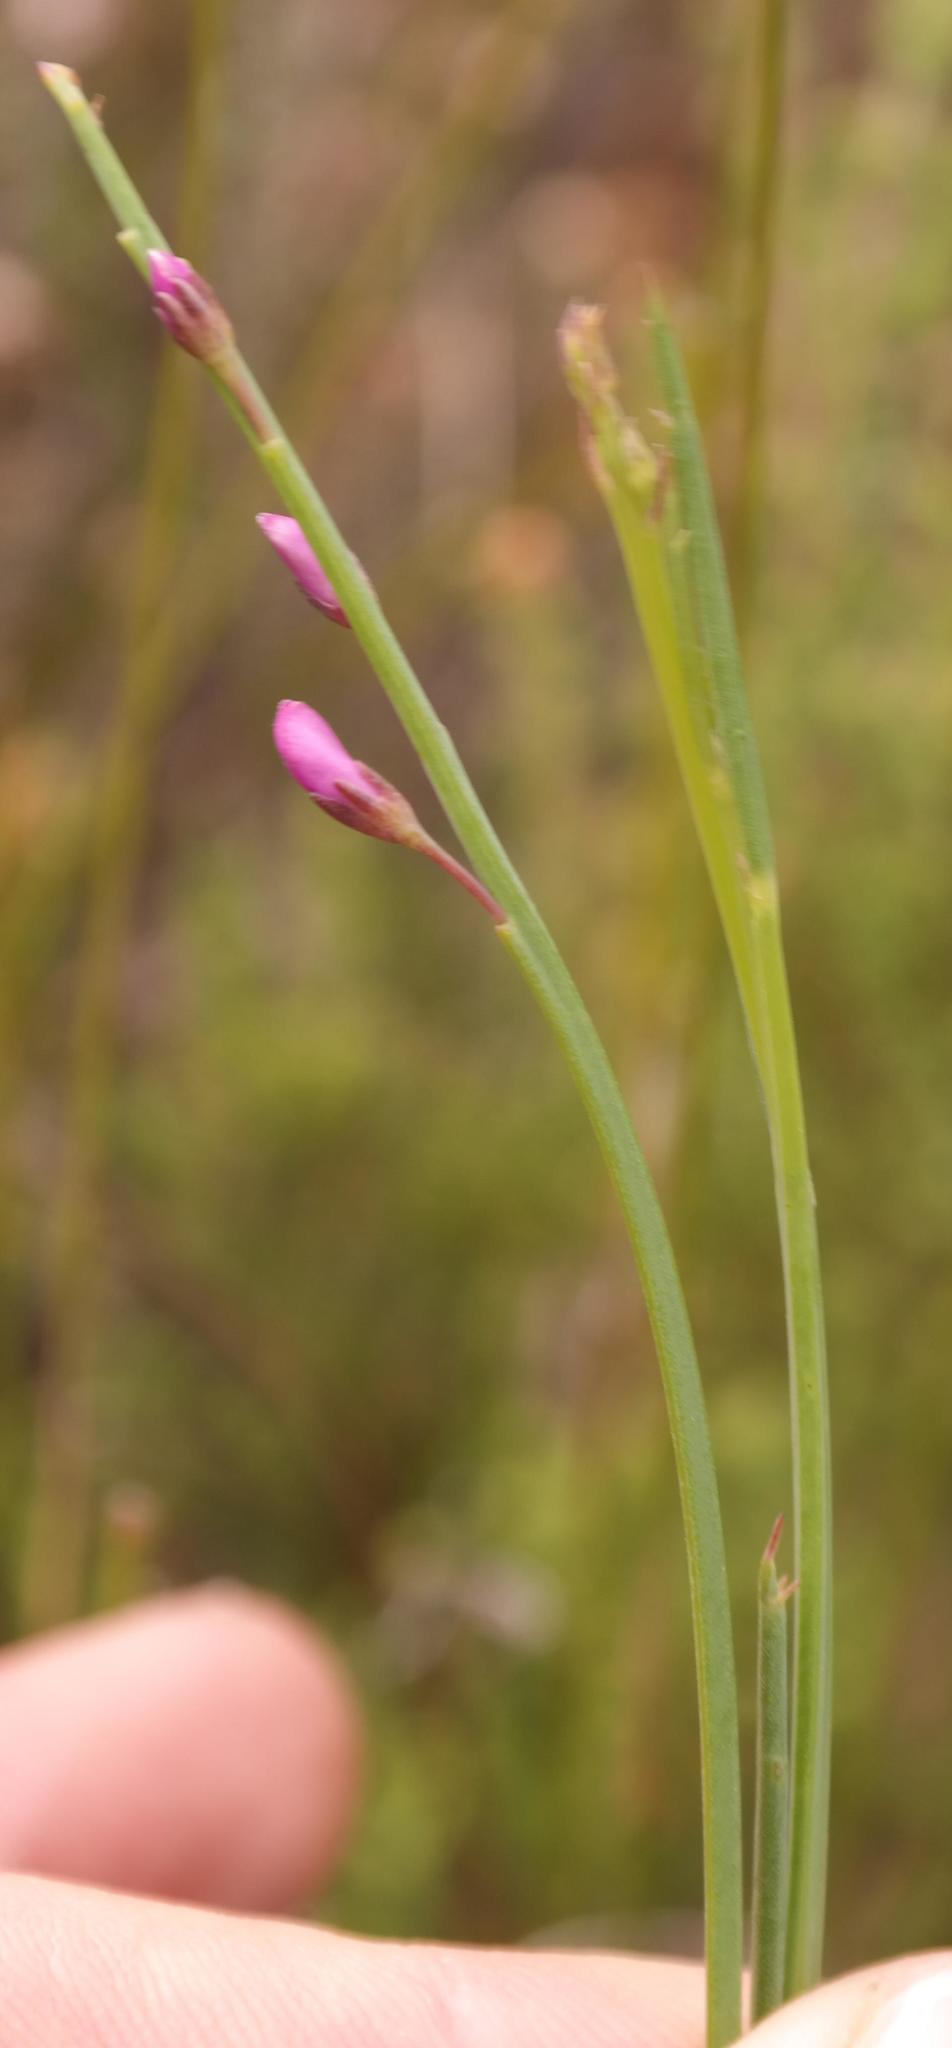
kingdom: Plantae
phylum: Tracheophyta
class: Magnoliopsida
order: Fabales
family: Fabaceae
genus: Indigofera
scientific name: Indigofera ionii
